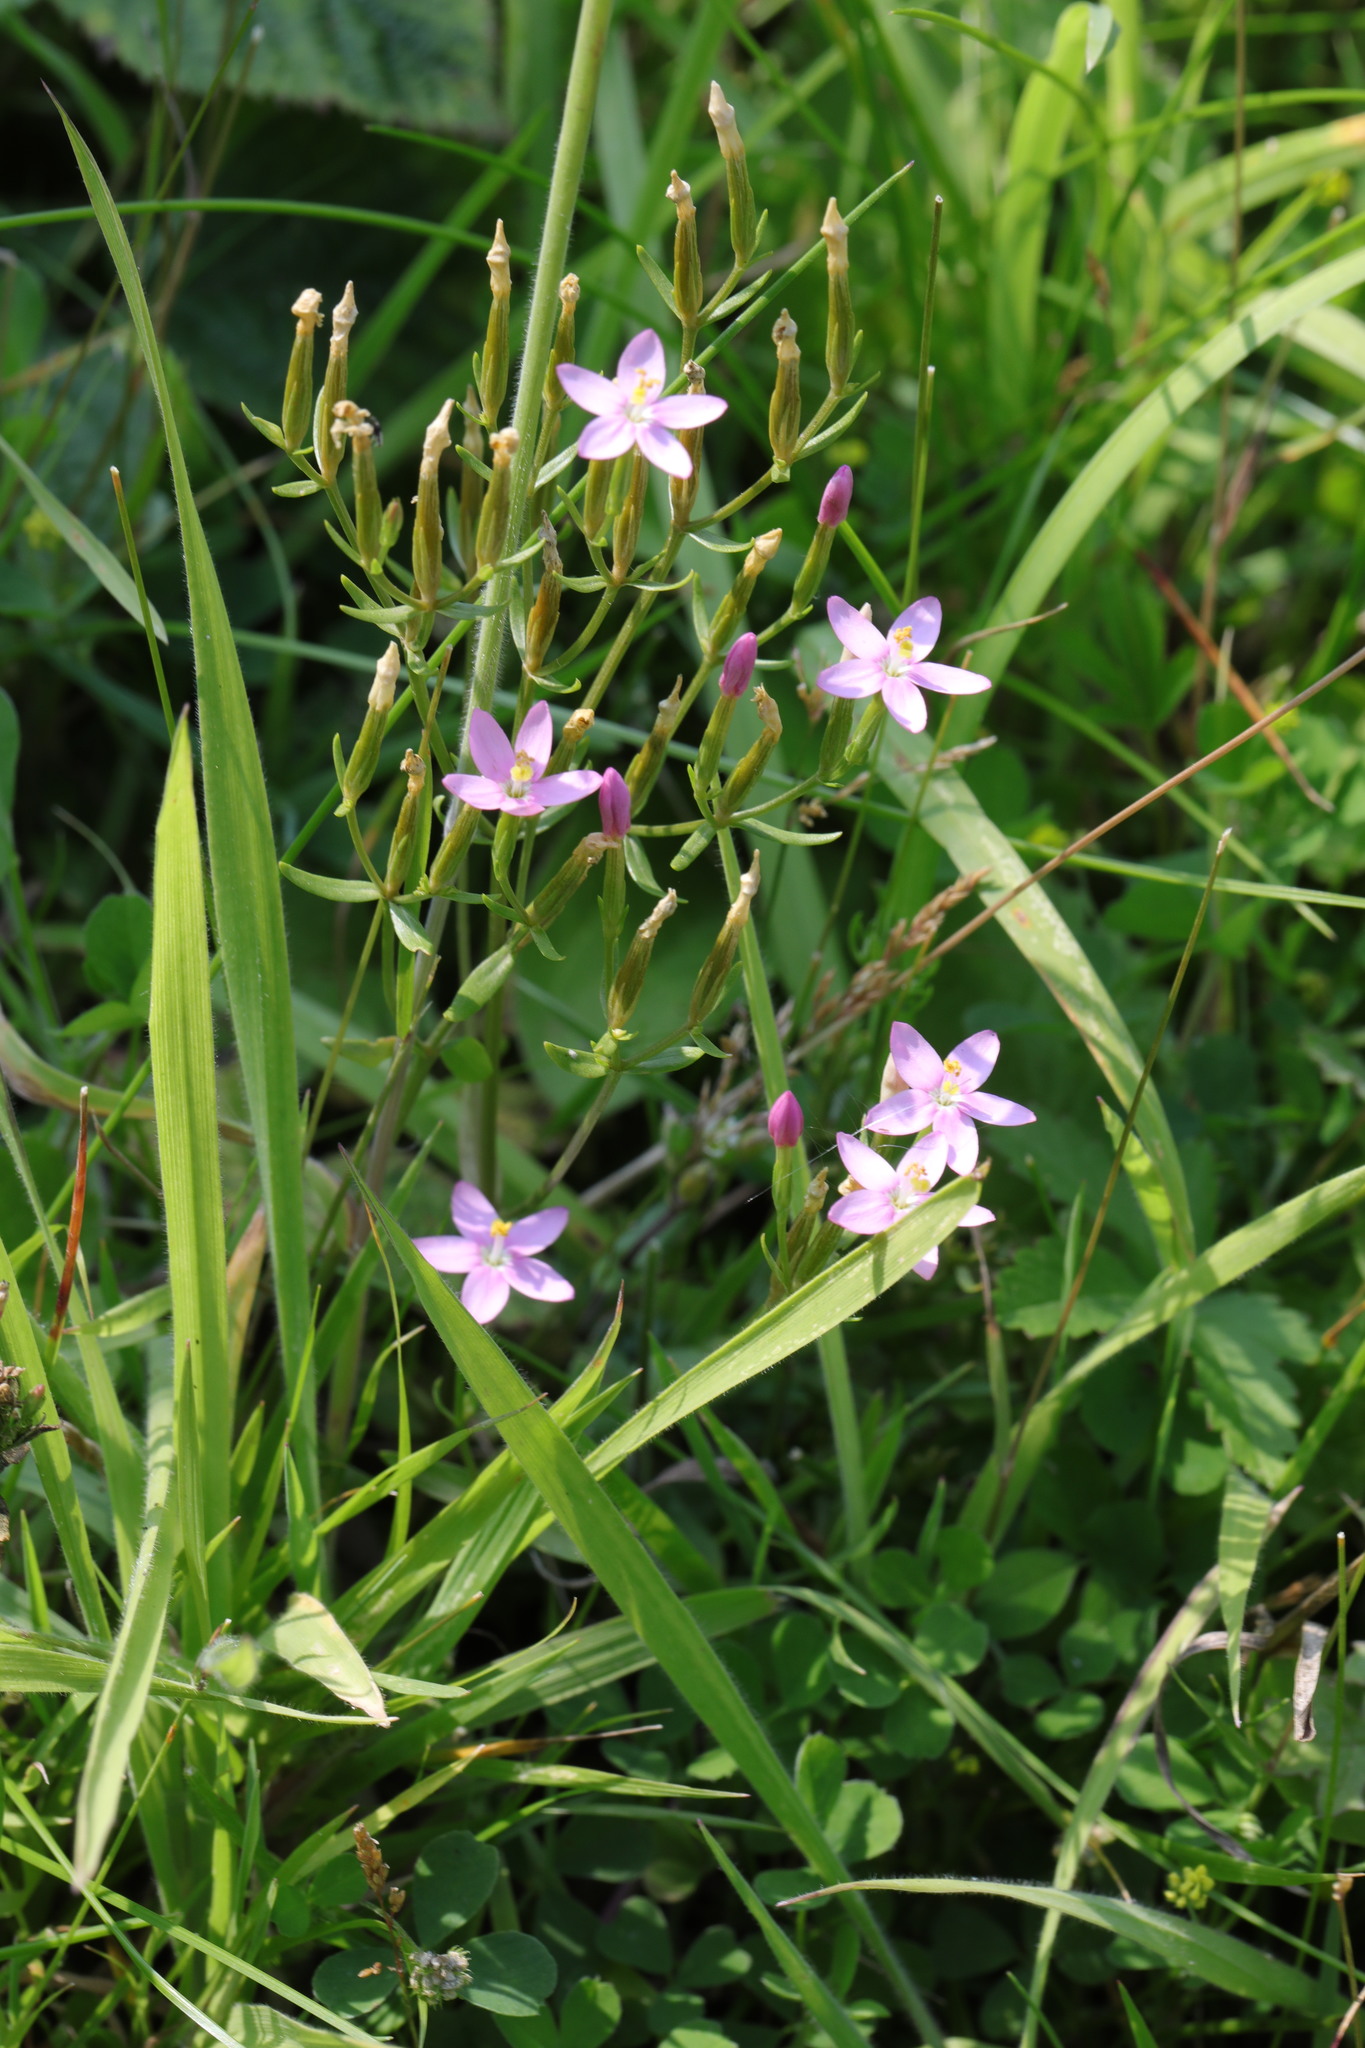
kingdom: Plantae
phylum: Tracheophyta
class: Magnoliopsida
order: Gentianales
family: Gentianaceae
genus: Centaurium
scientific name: Centaurium erythraea
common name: Common centaury
